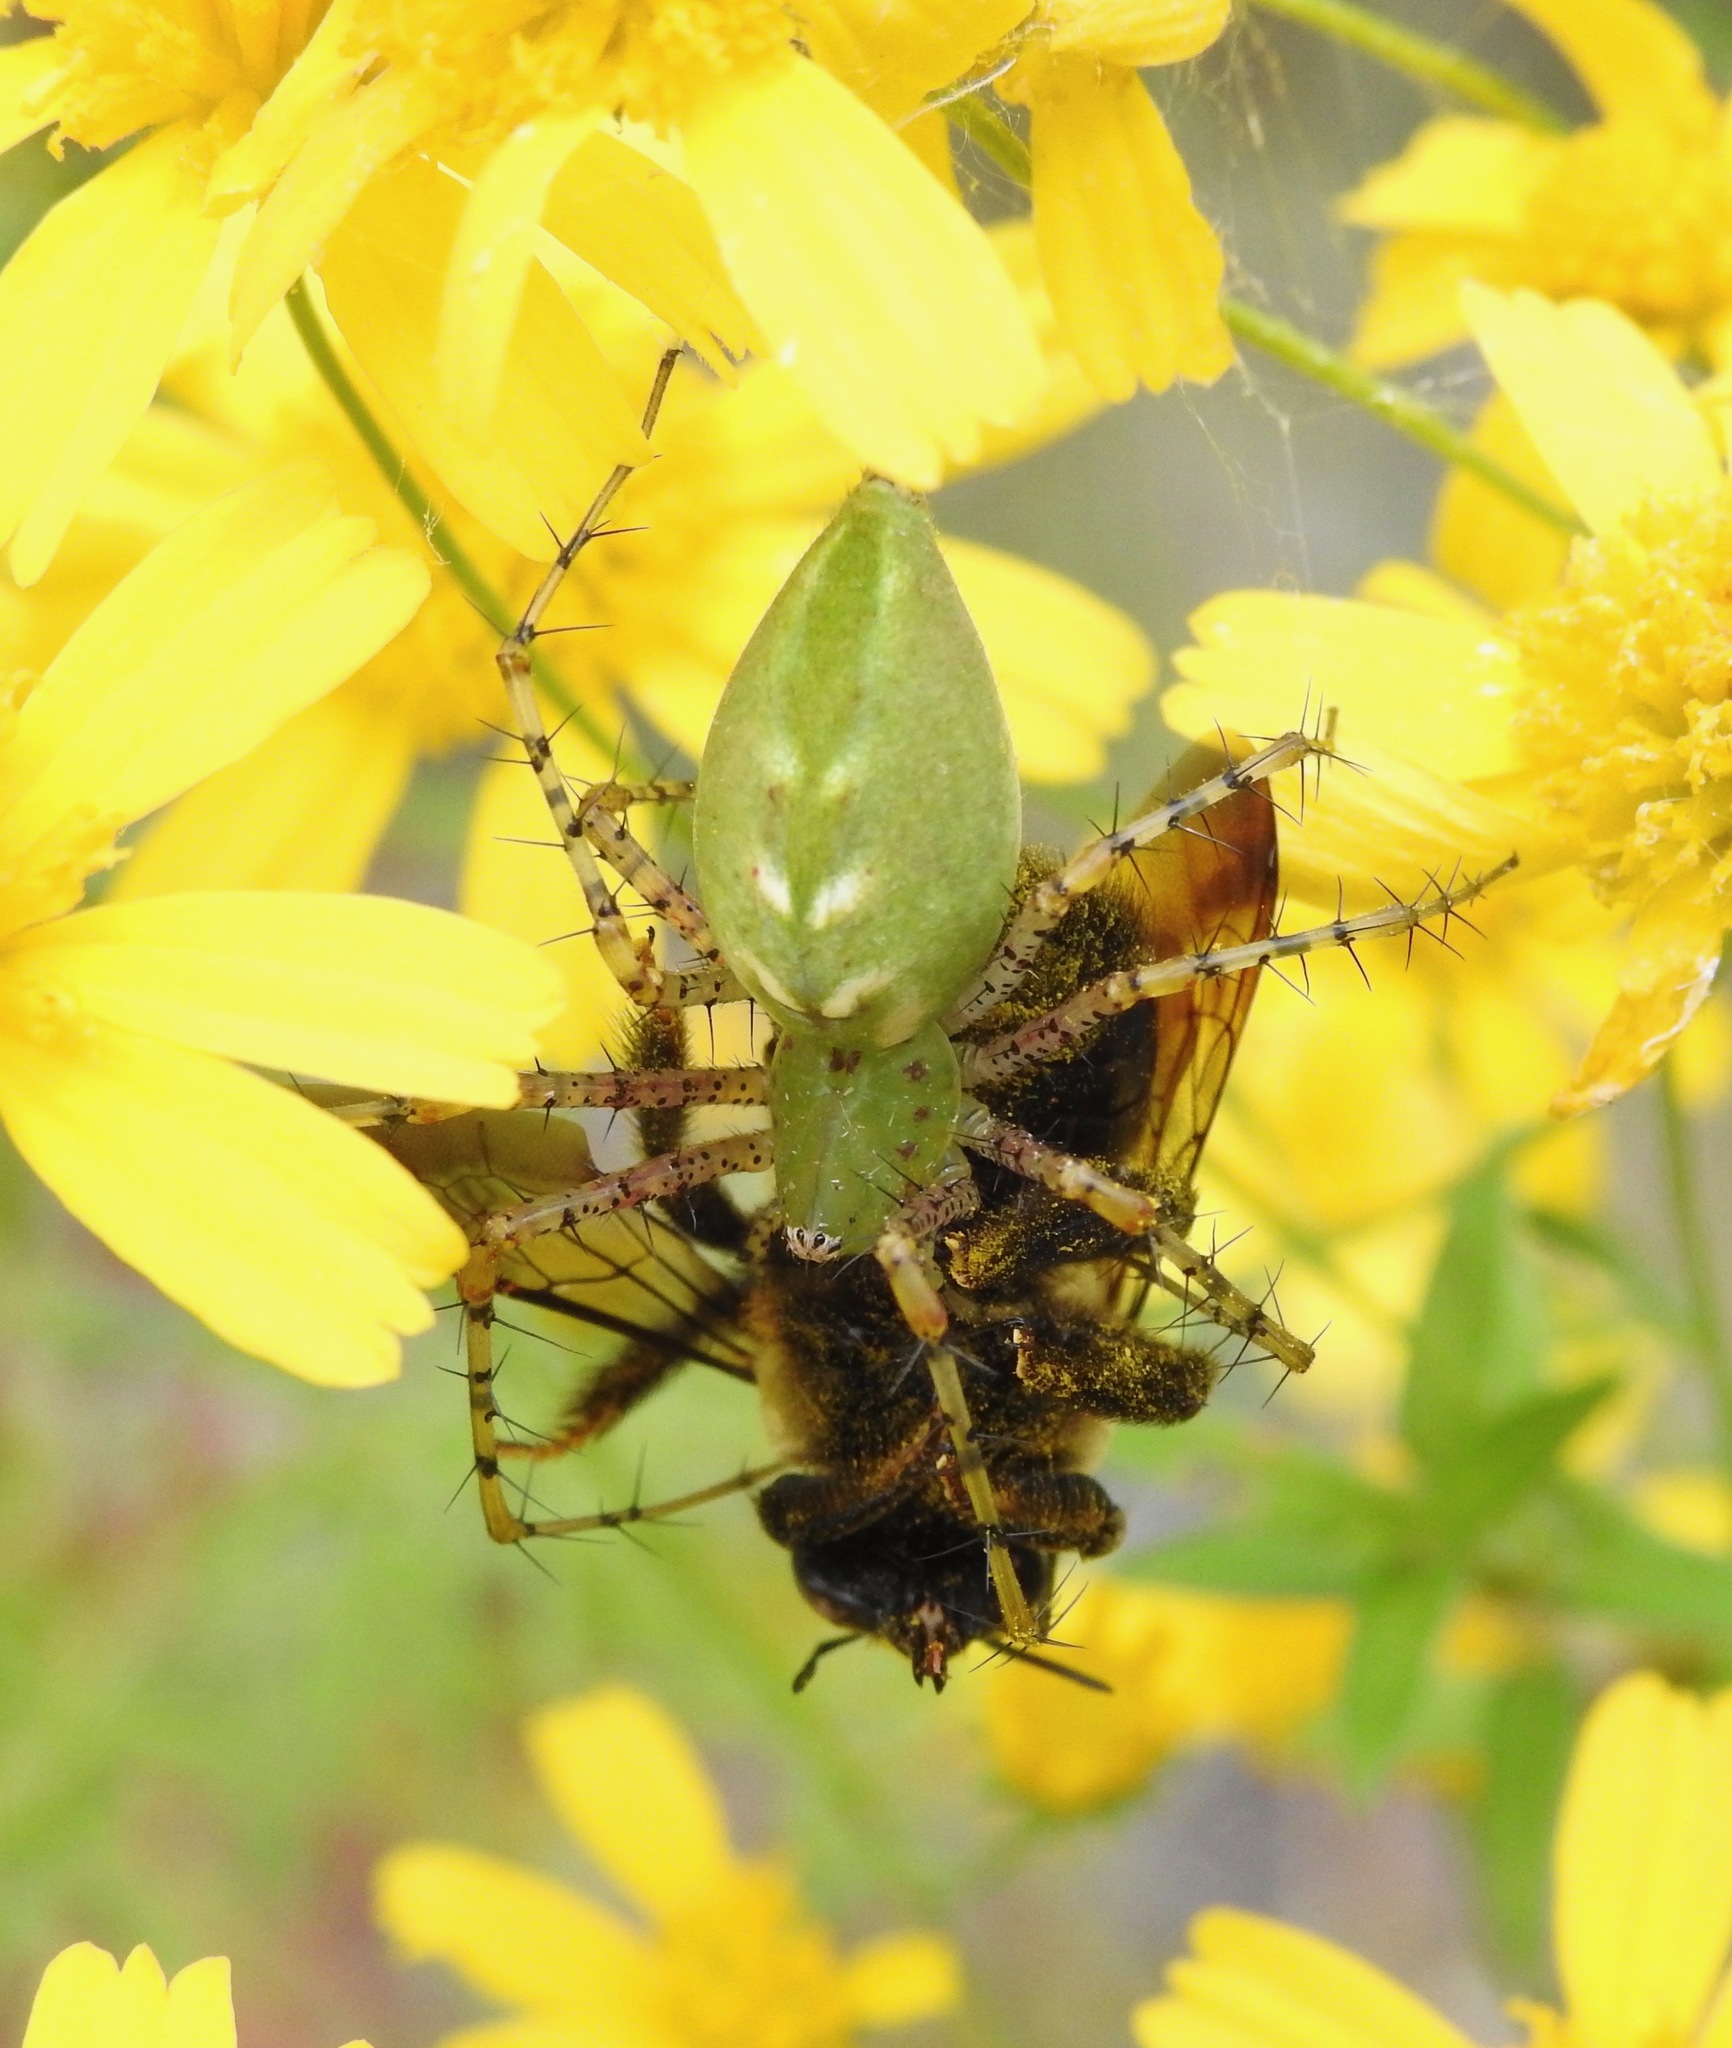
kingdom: Animalia
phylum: Arthropoda
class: Arachnida
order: Araneae
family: Oxyopidae
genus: Peucetia
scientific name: Peucetia viridans
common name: Lynx spiders
